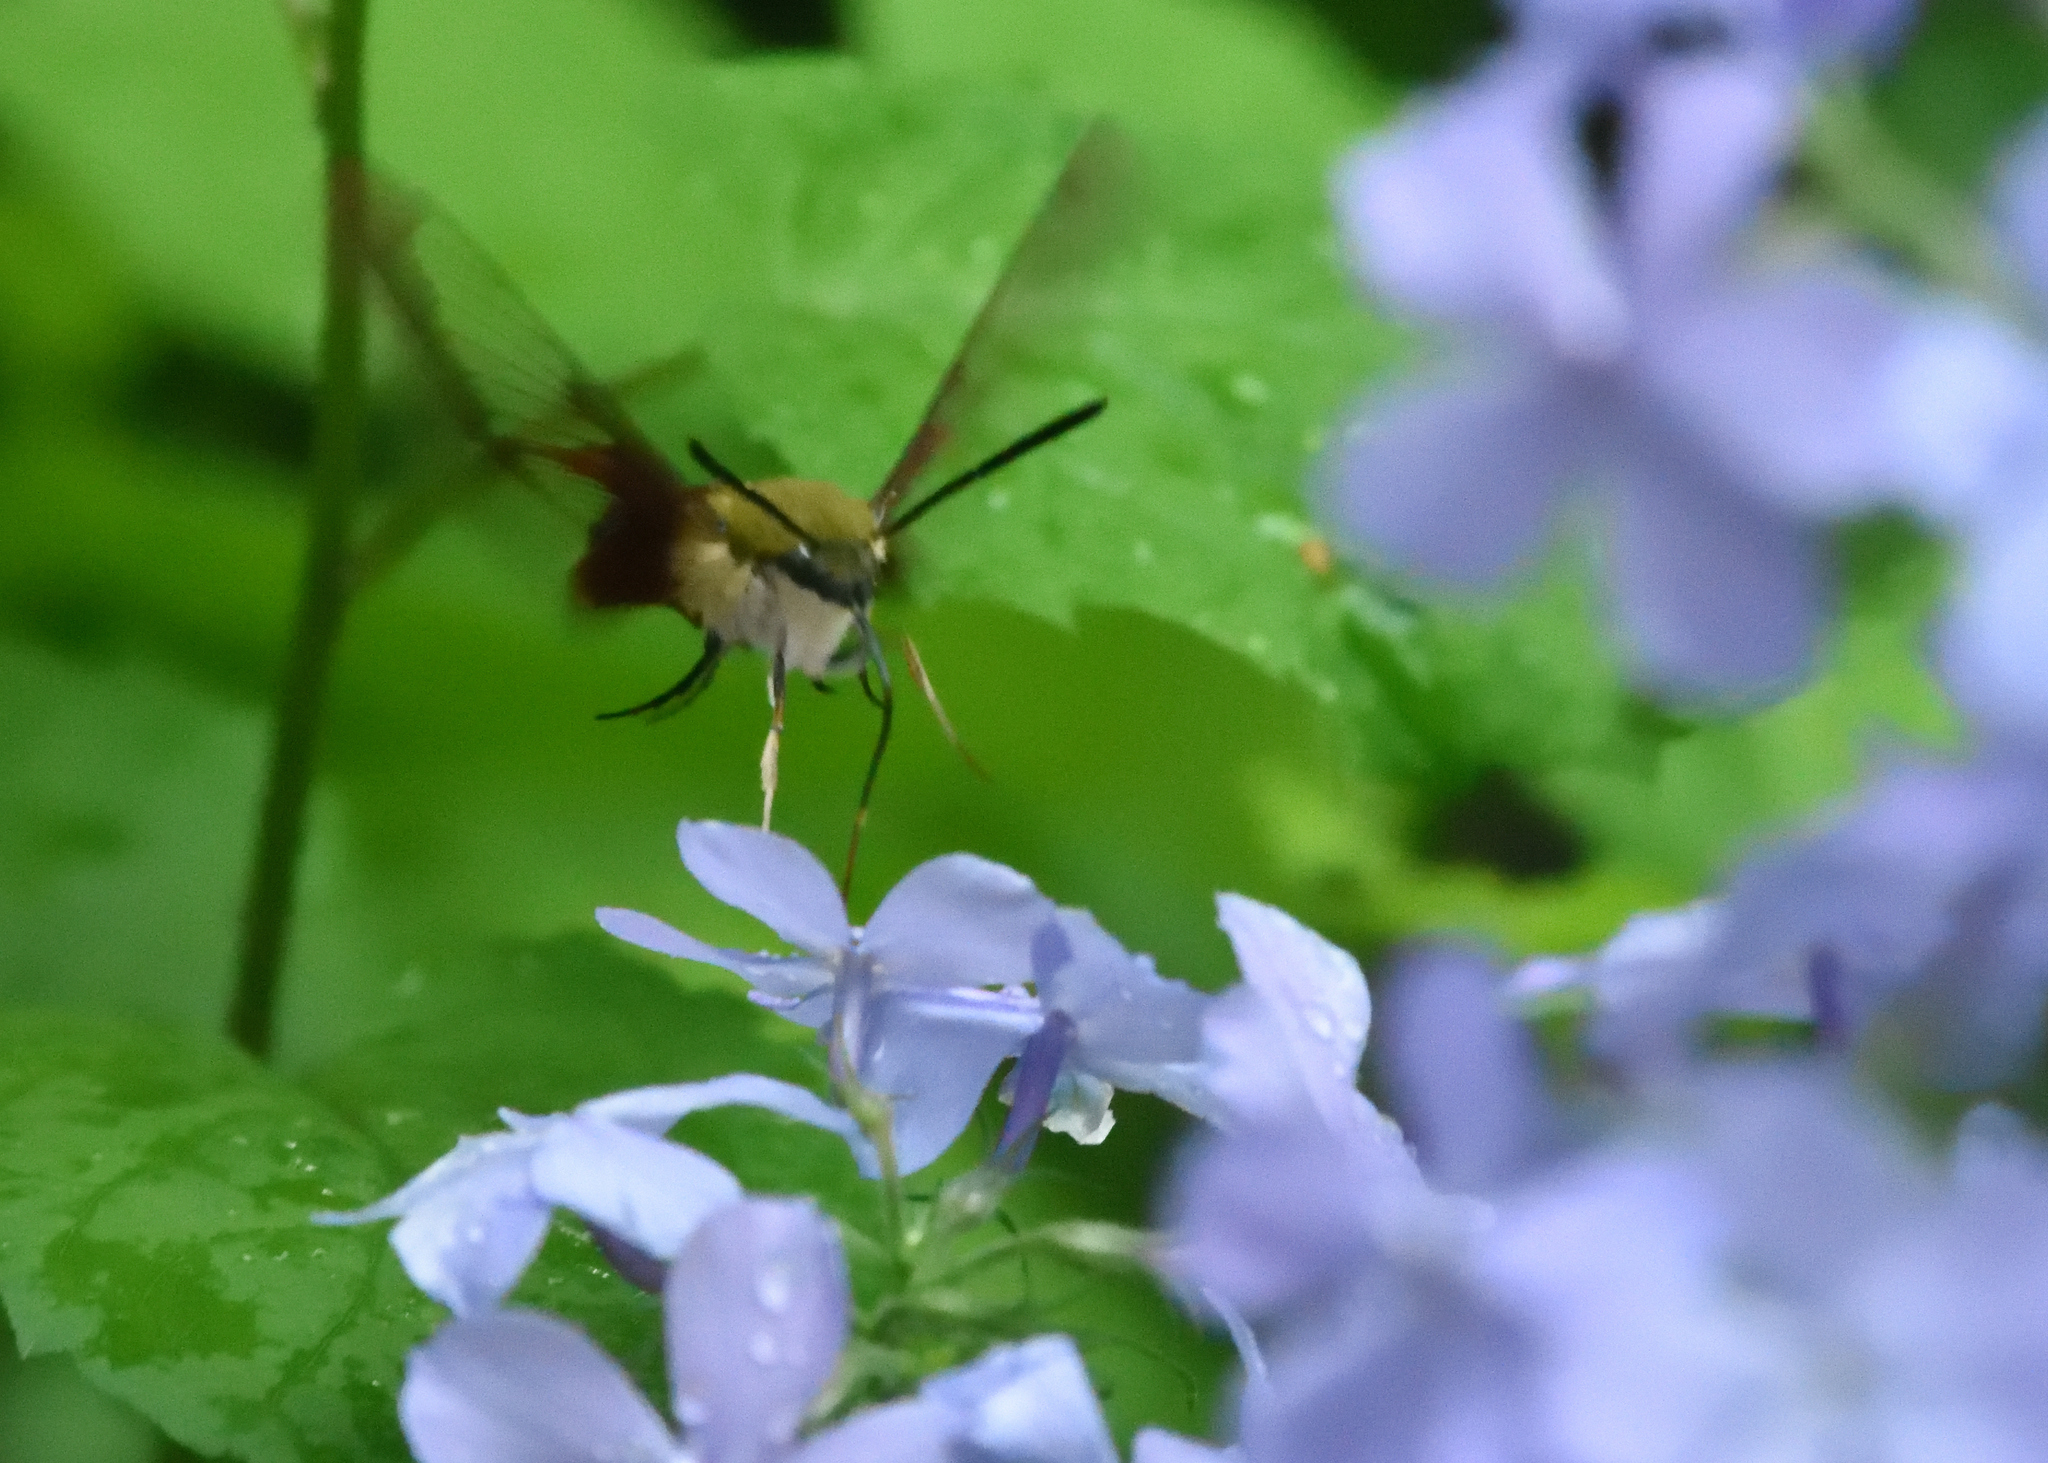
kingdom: Animalia
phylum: Arthropoda
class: Insecta
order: Lepidoptera
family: Sphingidae
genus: Hemaris
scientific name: Hemaris thysbe
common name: Common clear-wing
